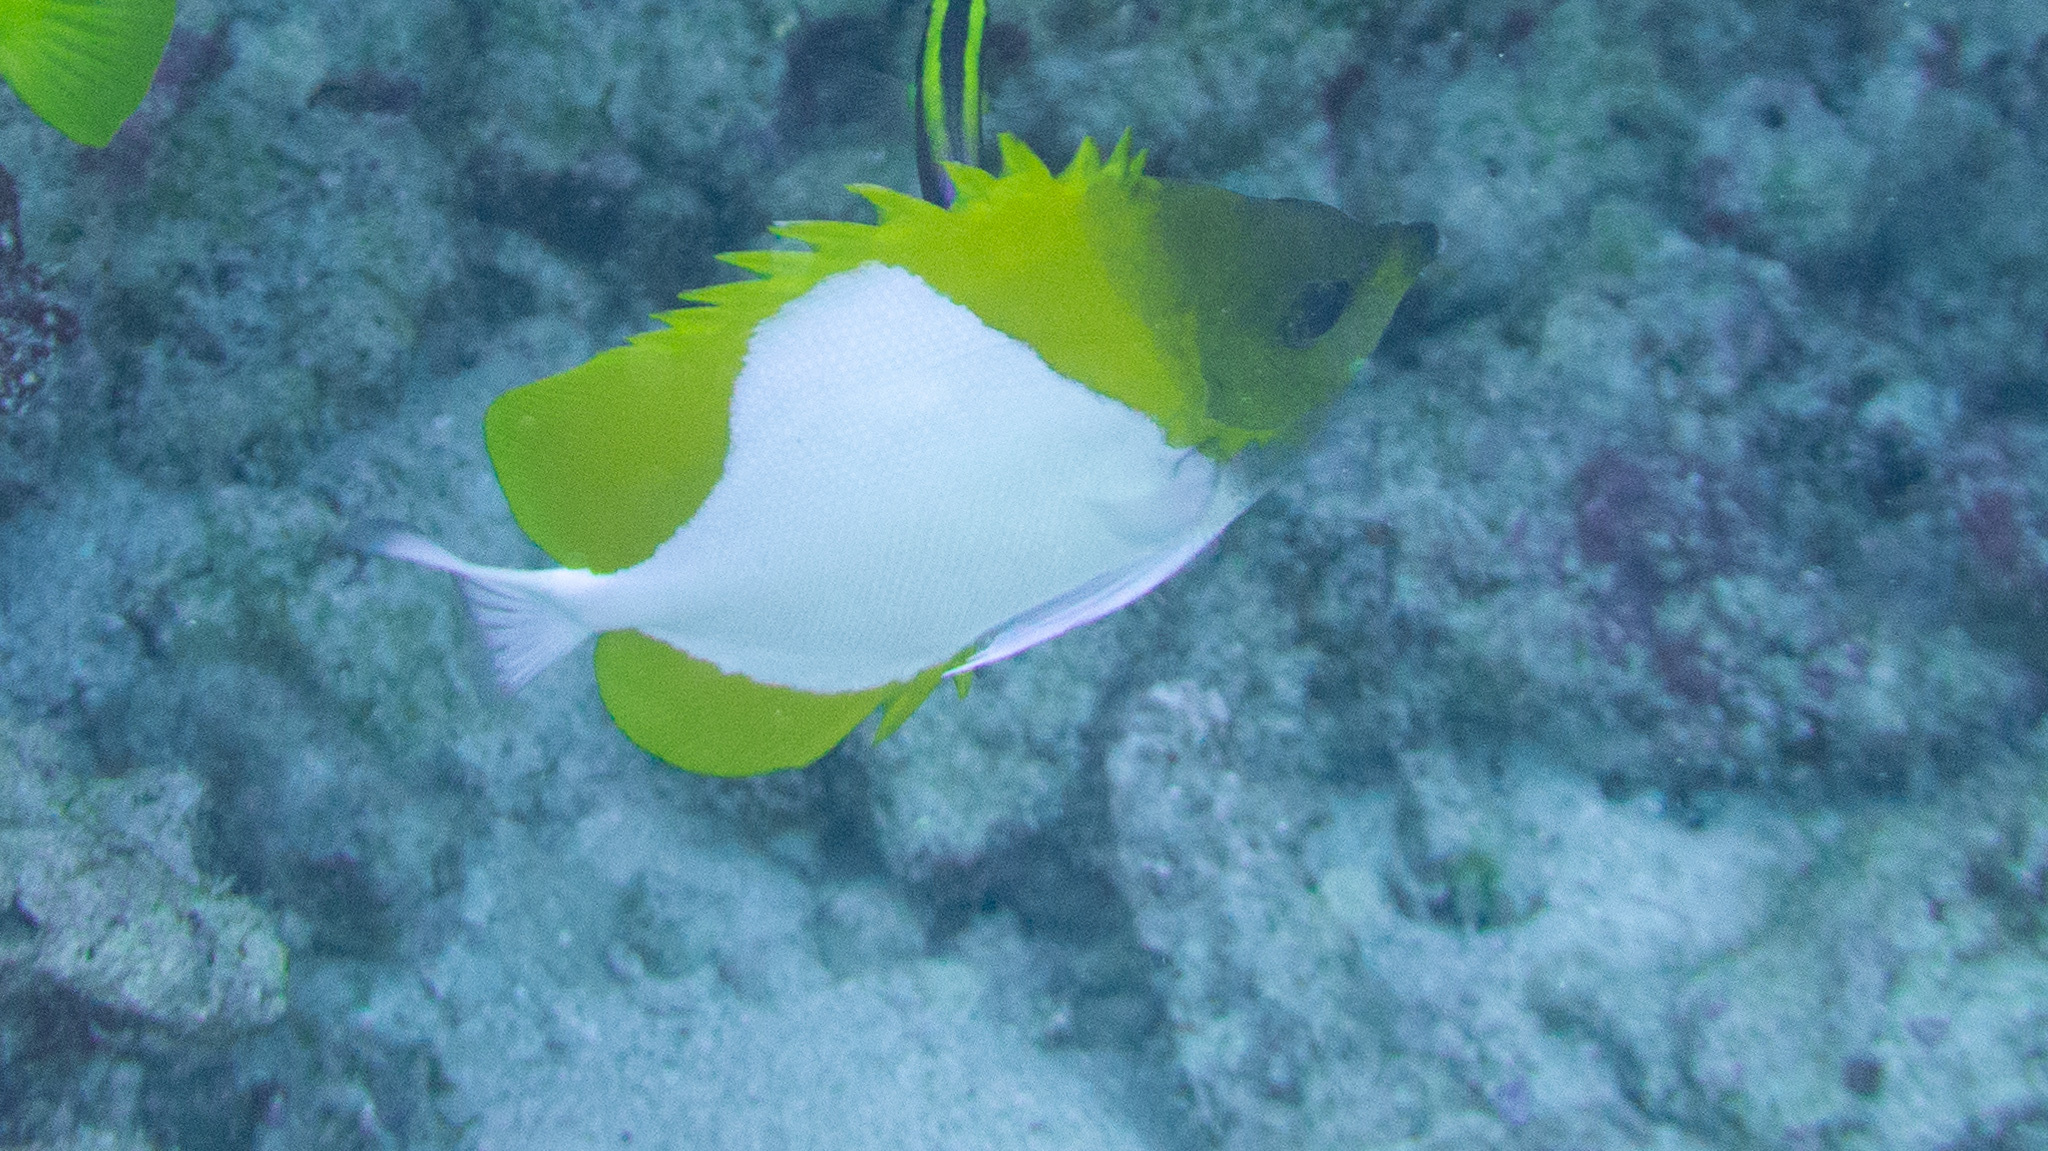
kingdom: Animalia
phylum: Chordata
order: Perciformes
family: Chaetodontidae
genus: Hemitaurichthys
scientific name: Hemitaurichthys polylepis
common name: Brushytoothed butterflyfish
